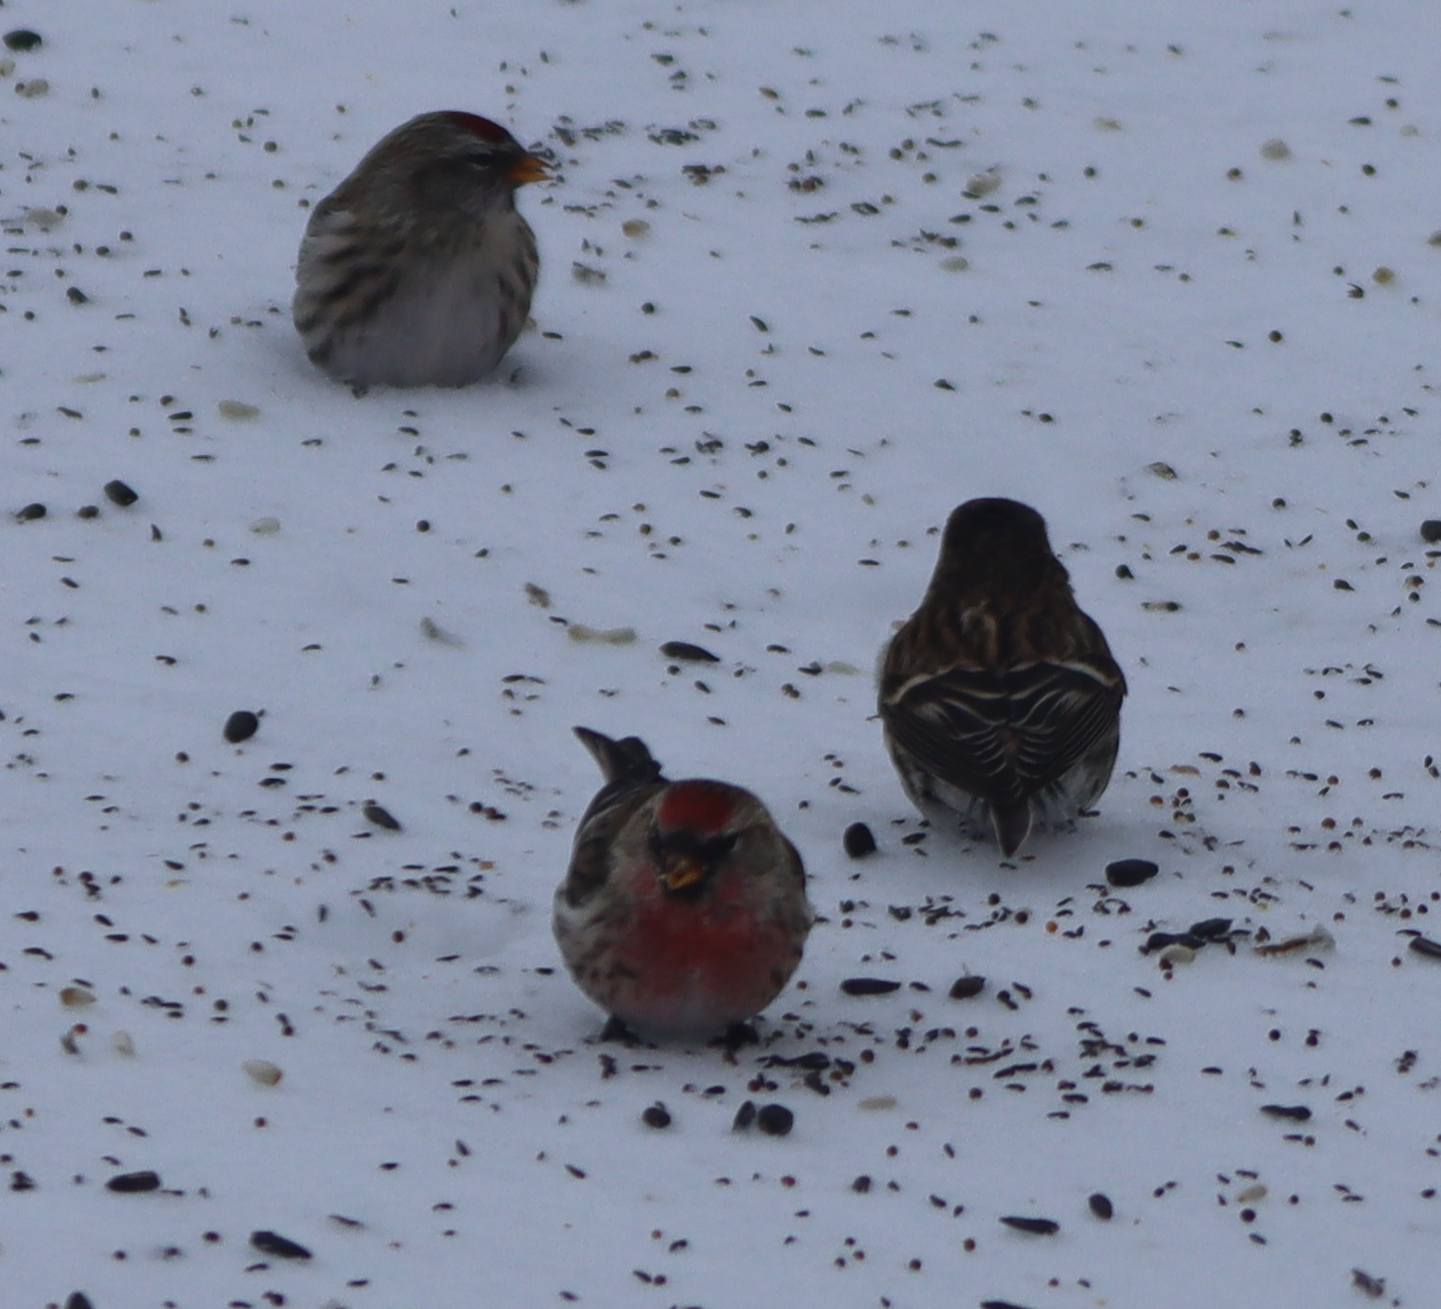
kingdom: Animalia
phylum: Chordata
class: Aves
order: Passeriformes
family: Fringillidae
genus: Acanthis
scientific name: Acanthis flammea
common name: Common redpoll
